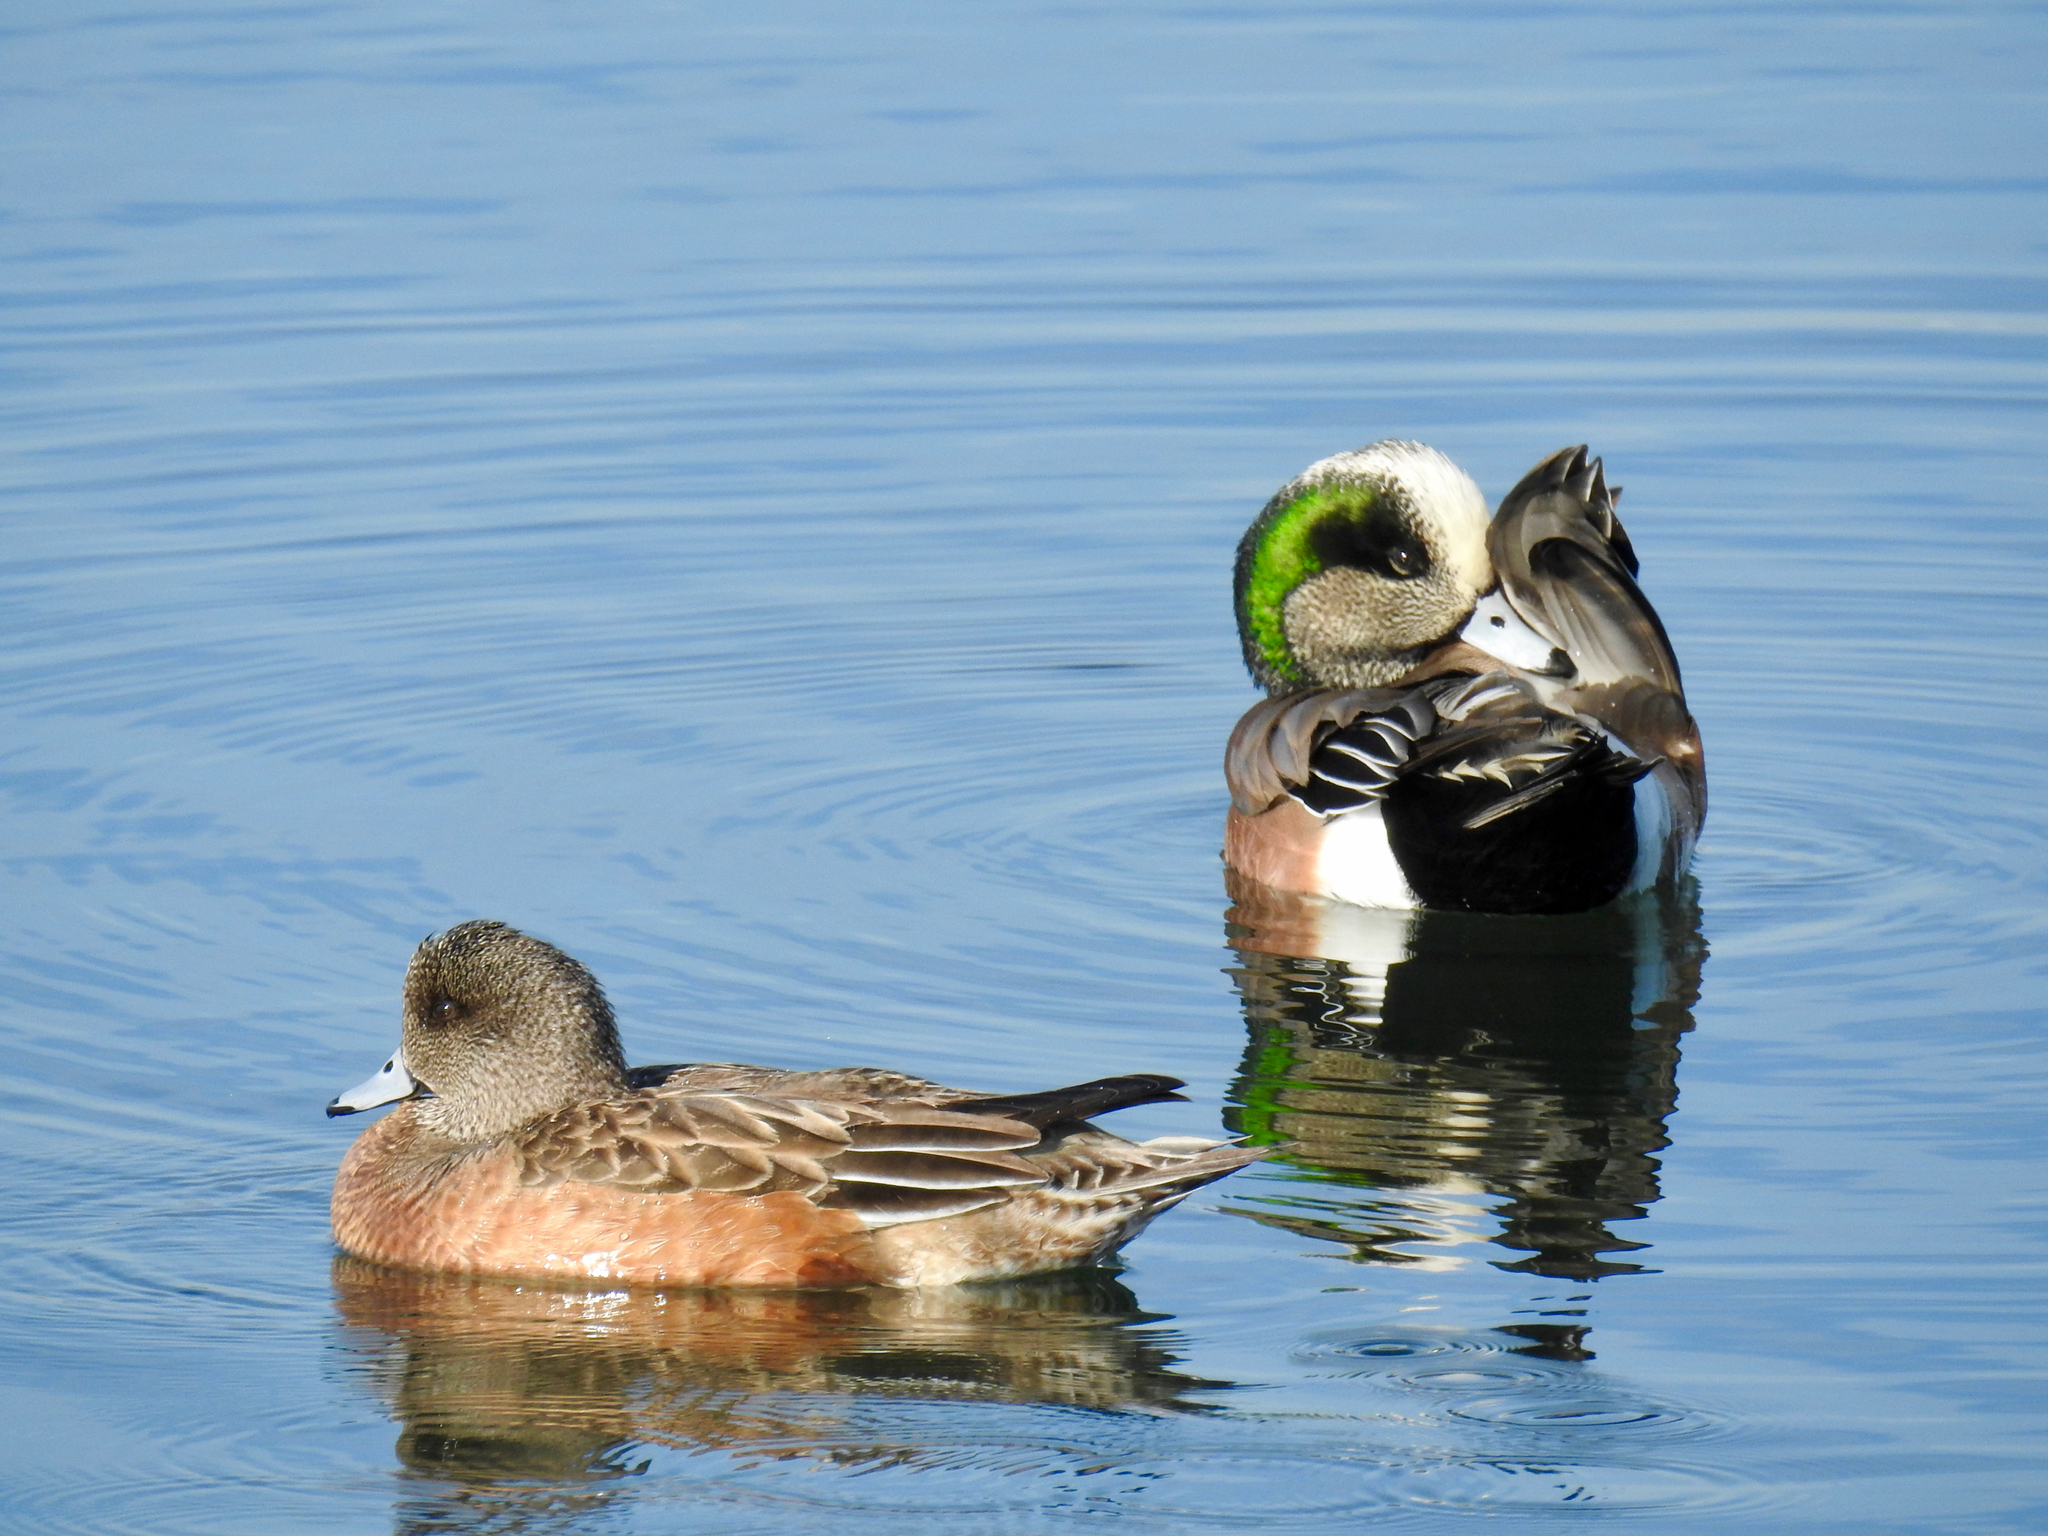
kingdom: Animalia
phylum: Chordata
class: Aves
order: Anseriformes
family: Anatidae
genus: Mareca
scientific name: Mareca americana
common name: American wigeon
